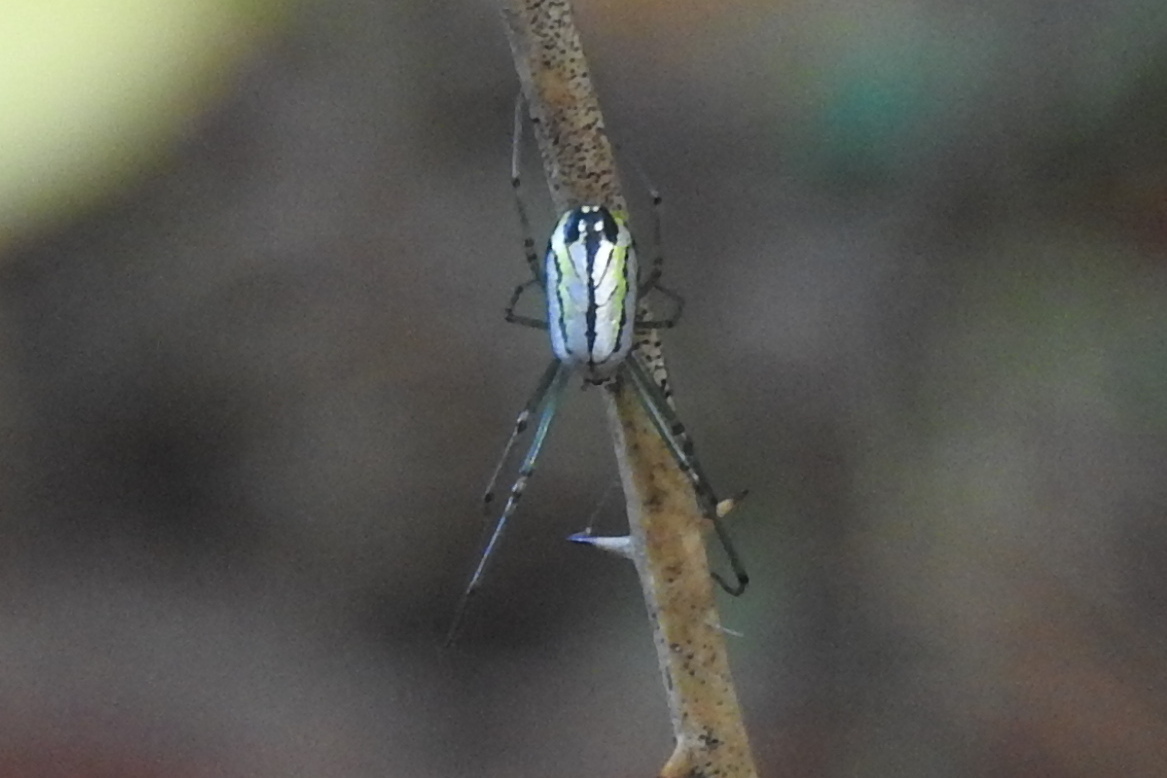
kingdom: Animalia
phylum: Arthropoda
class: Arachnida
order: Araneae
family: Tetragnathidae
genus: Leucauge
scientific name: Leucauge venusta
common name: Longjawed orb weavers
